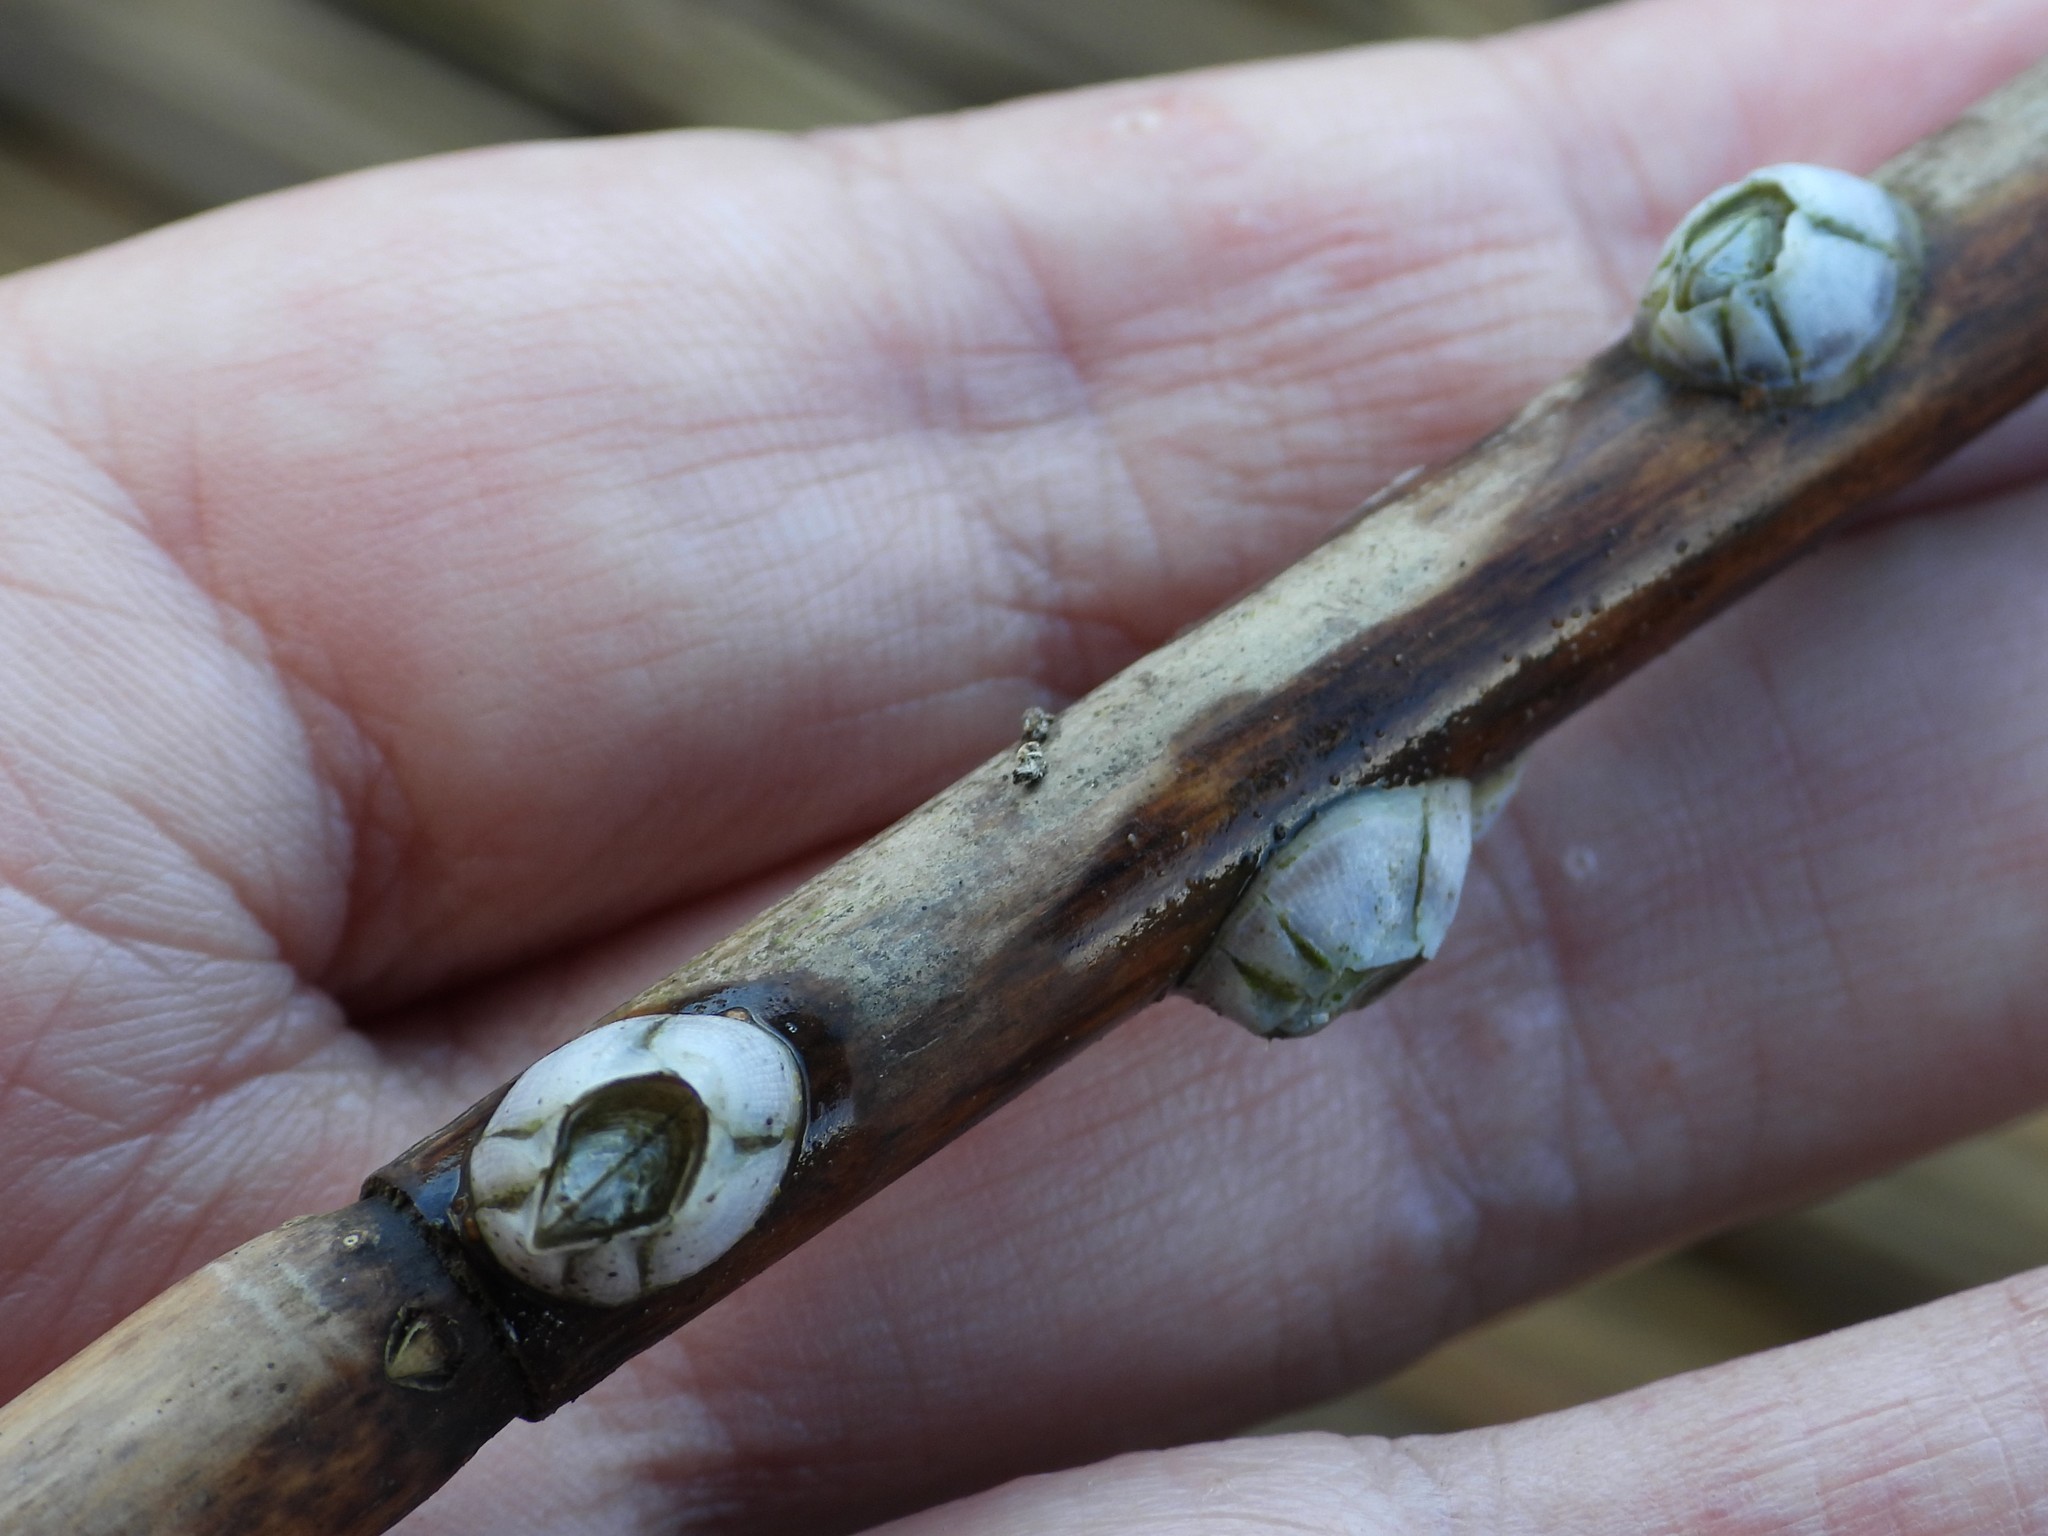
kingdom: Animalia
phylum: Arthropoda
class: Maxillopoda
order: Sessilia
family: Balanidae
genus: Amphibalanus
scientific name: Amphibalanus improvisus
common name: Bay barnacle
